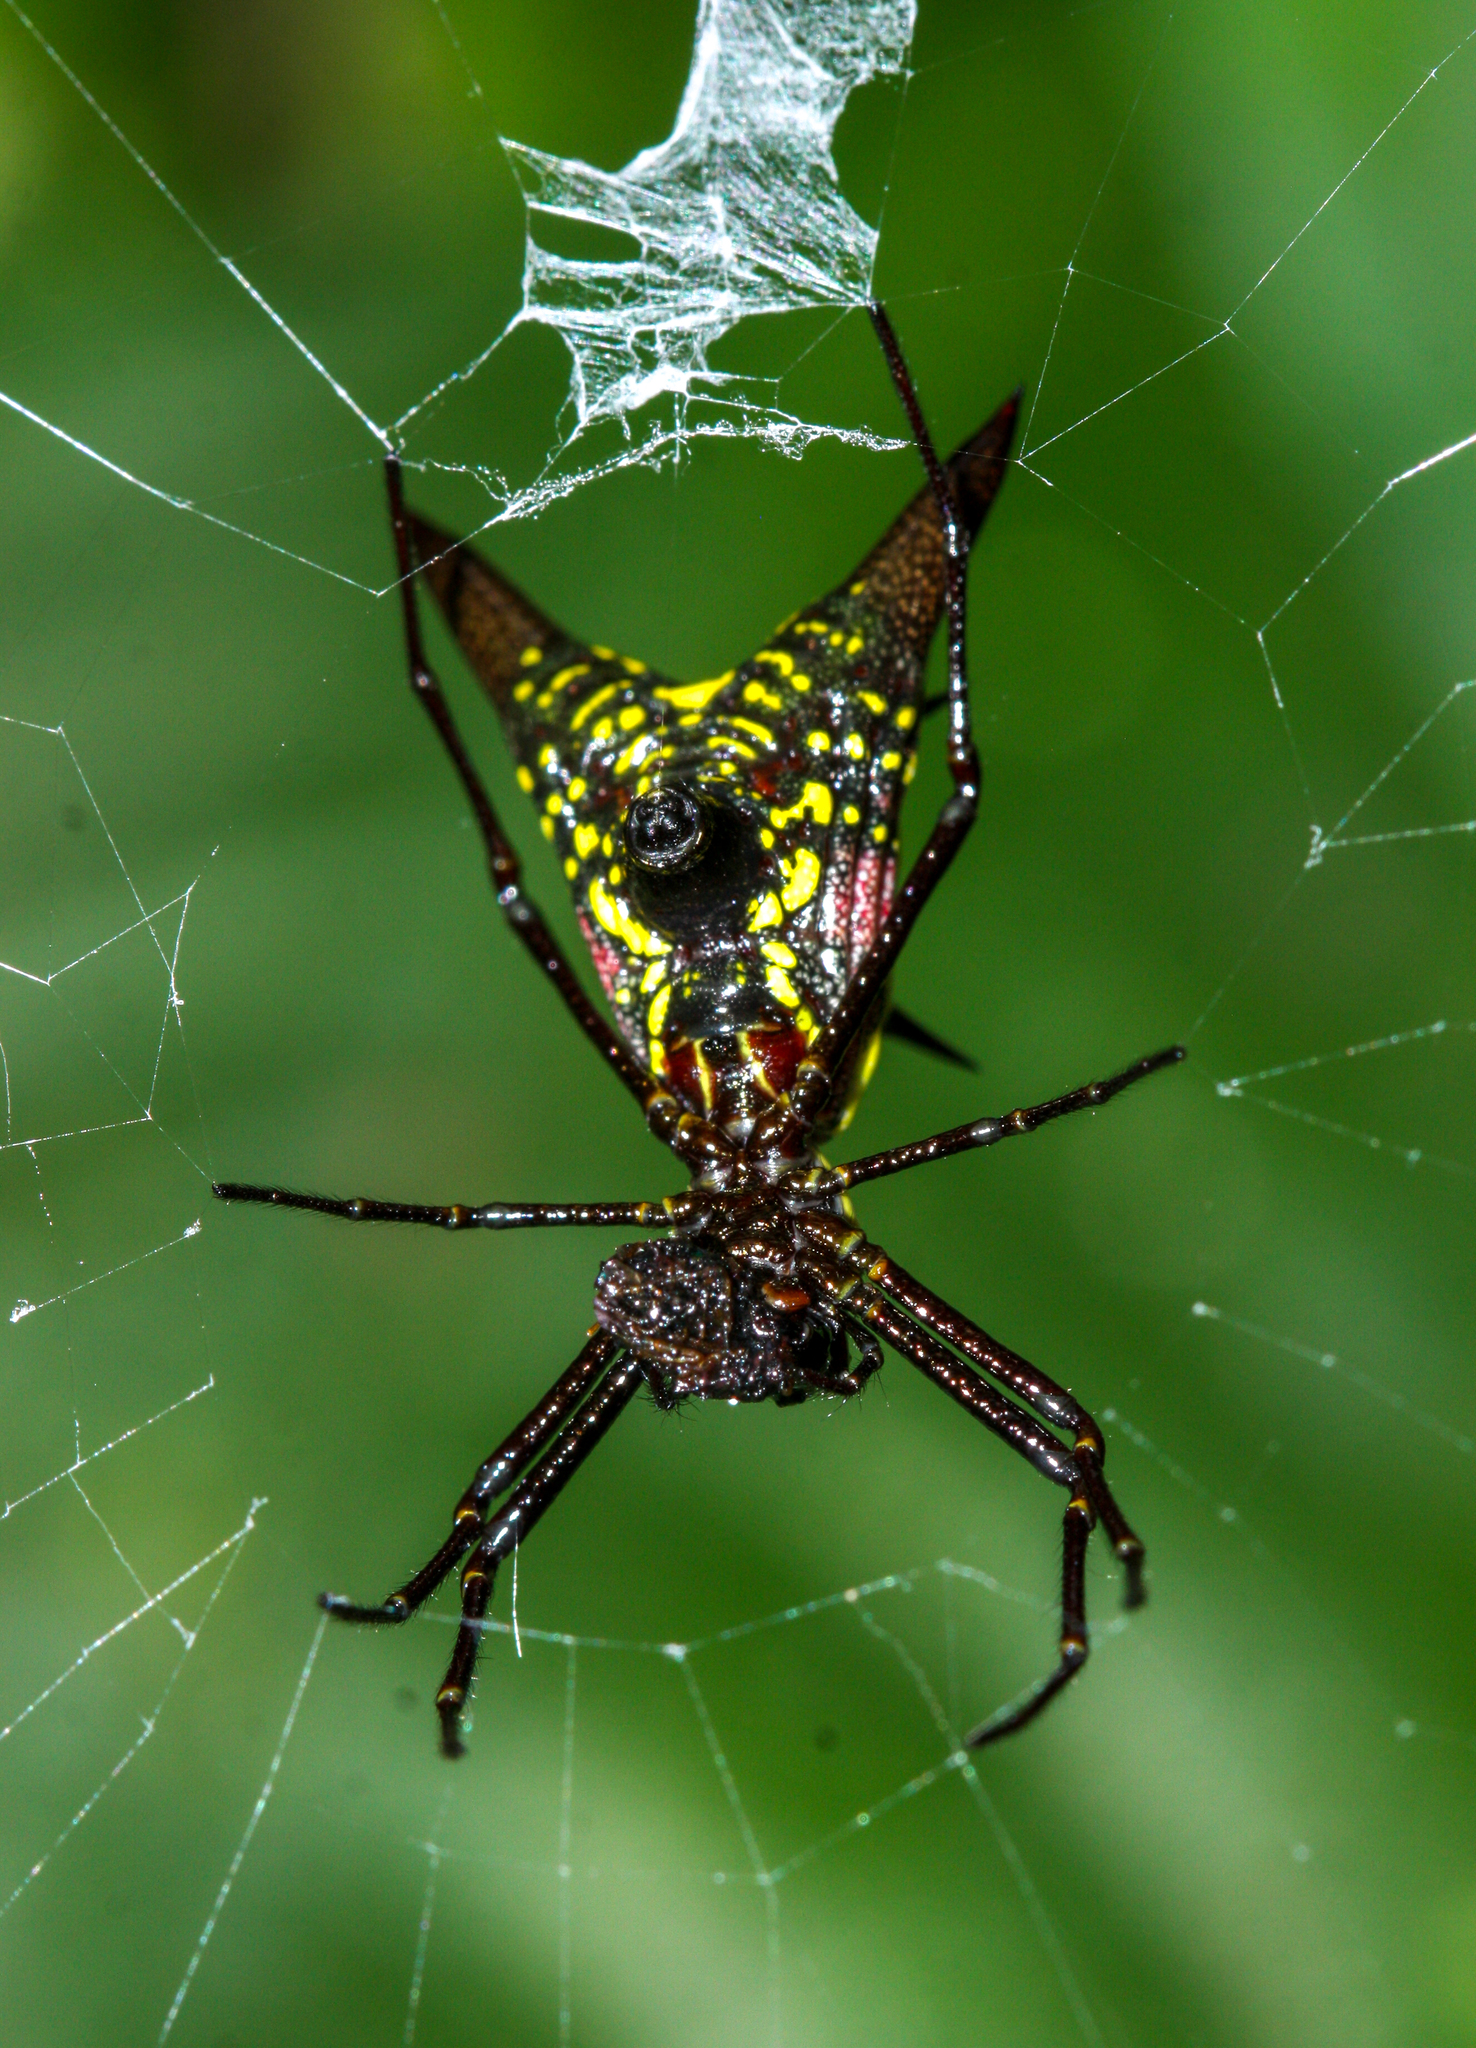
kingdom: Animalia
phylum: Arthropoda
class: Arachnida
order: Araneae
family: Araneidae
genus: Micrathena
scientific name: Micrathena pichincha
